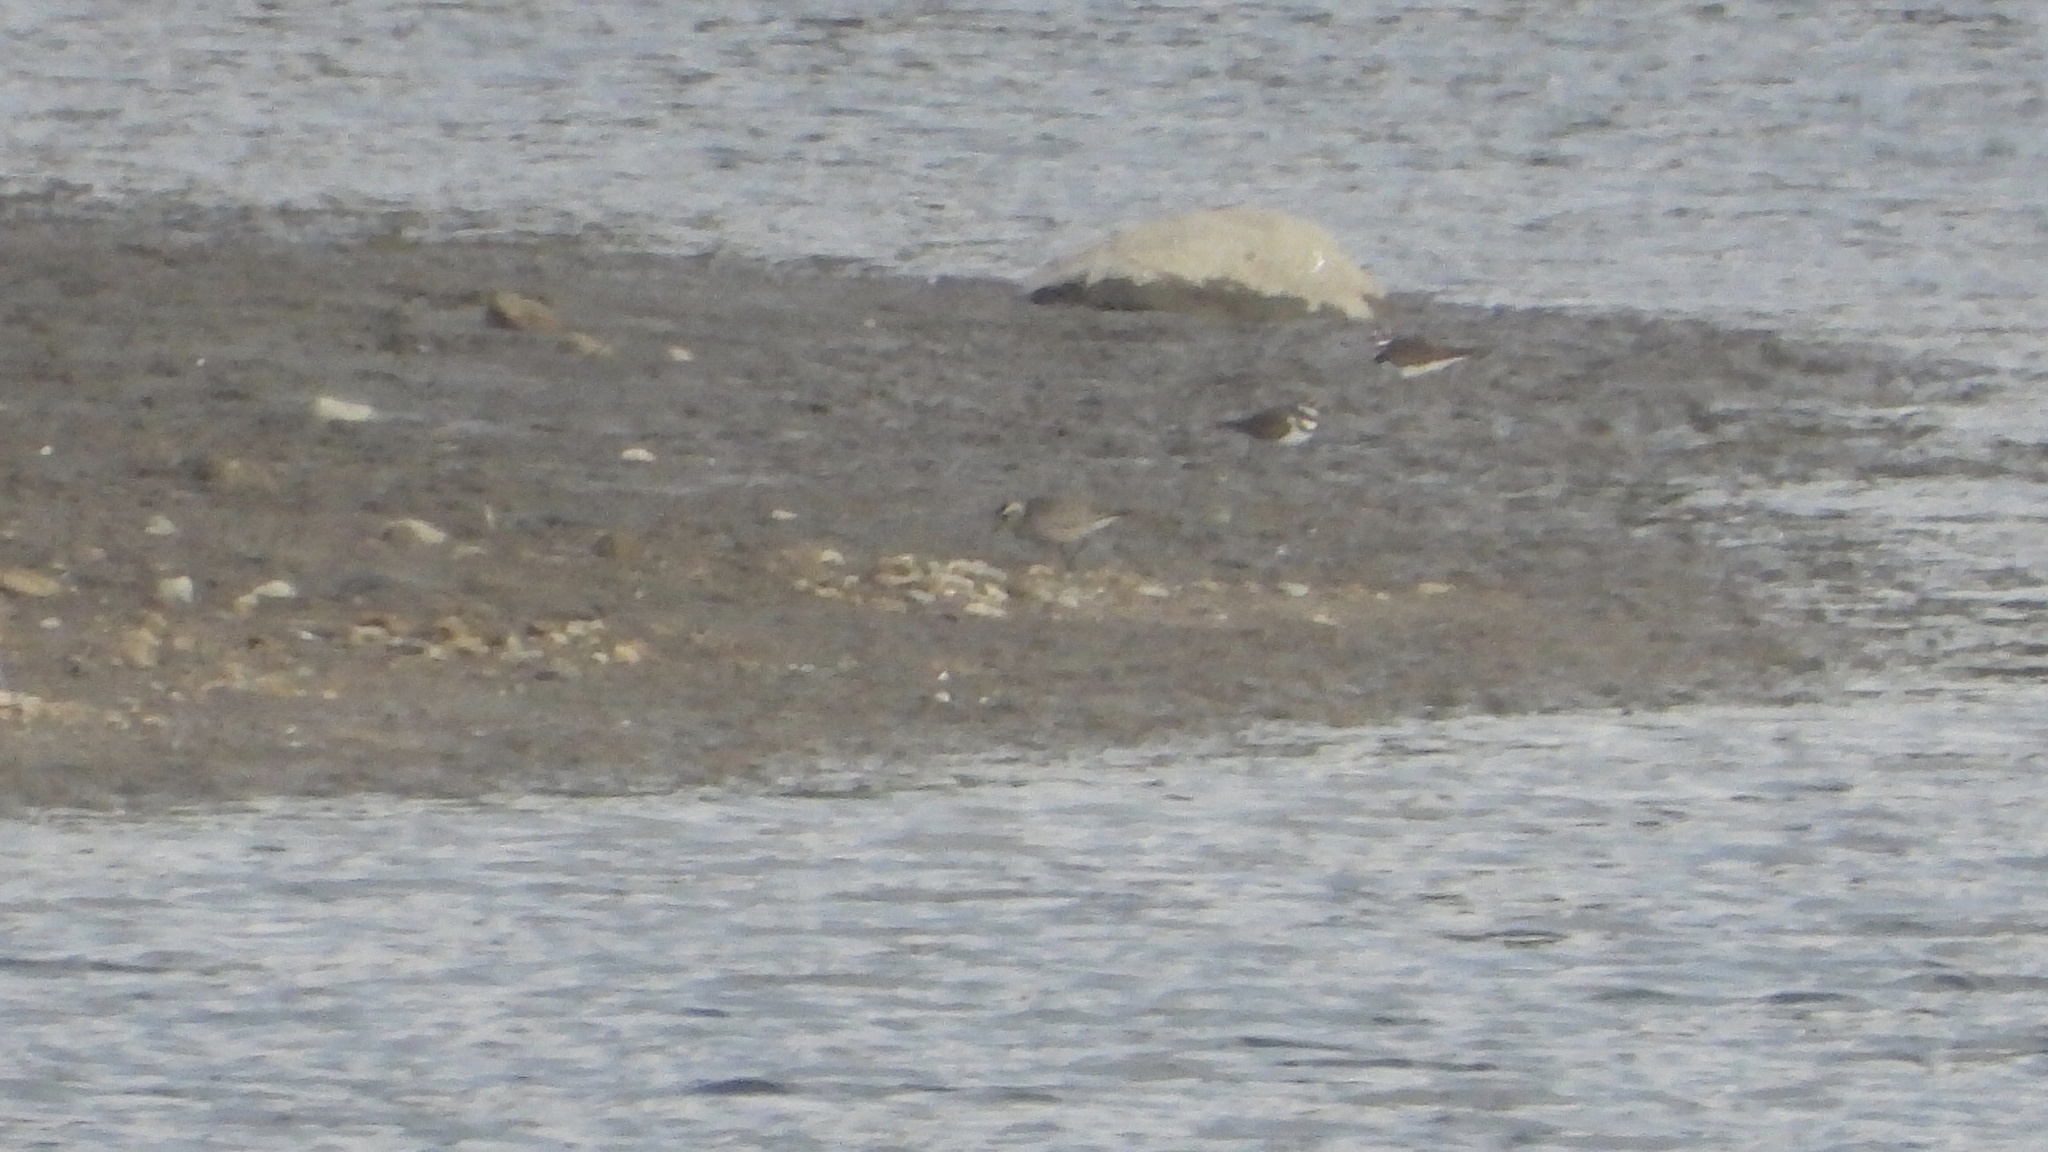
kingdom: Animalia
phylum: Chordata
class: Aves
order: Charadriiformes
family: Charadriidae
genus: Pluvialis
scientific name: Pluvialis dominica
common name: American golden plover
